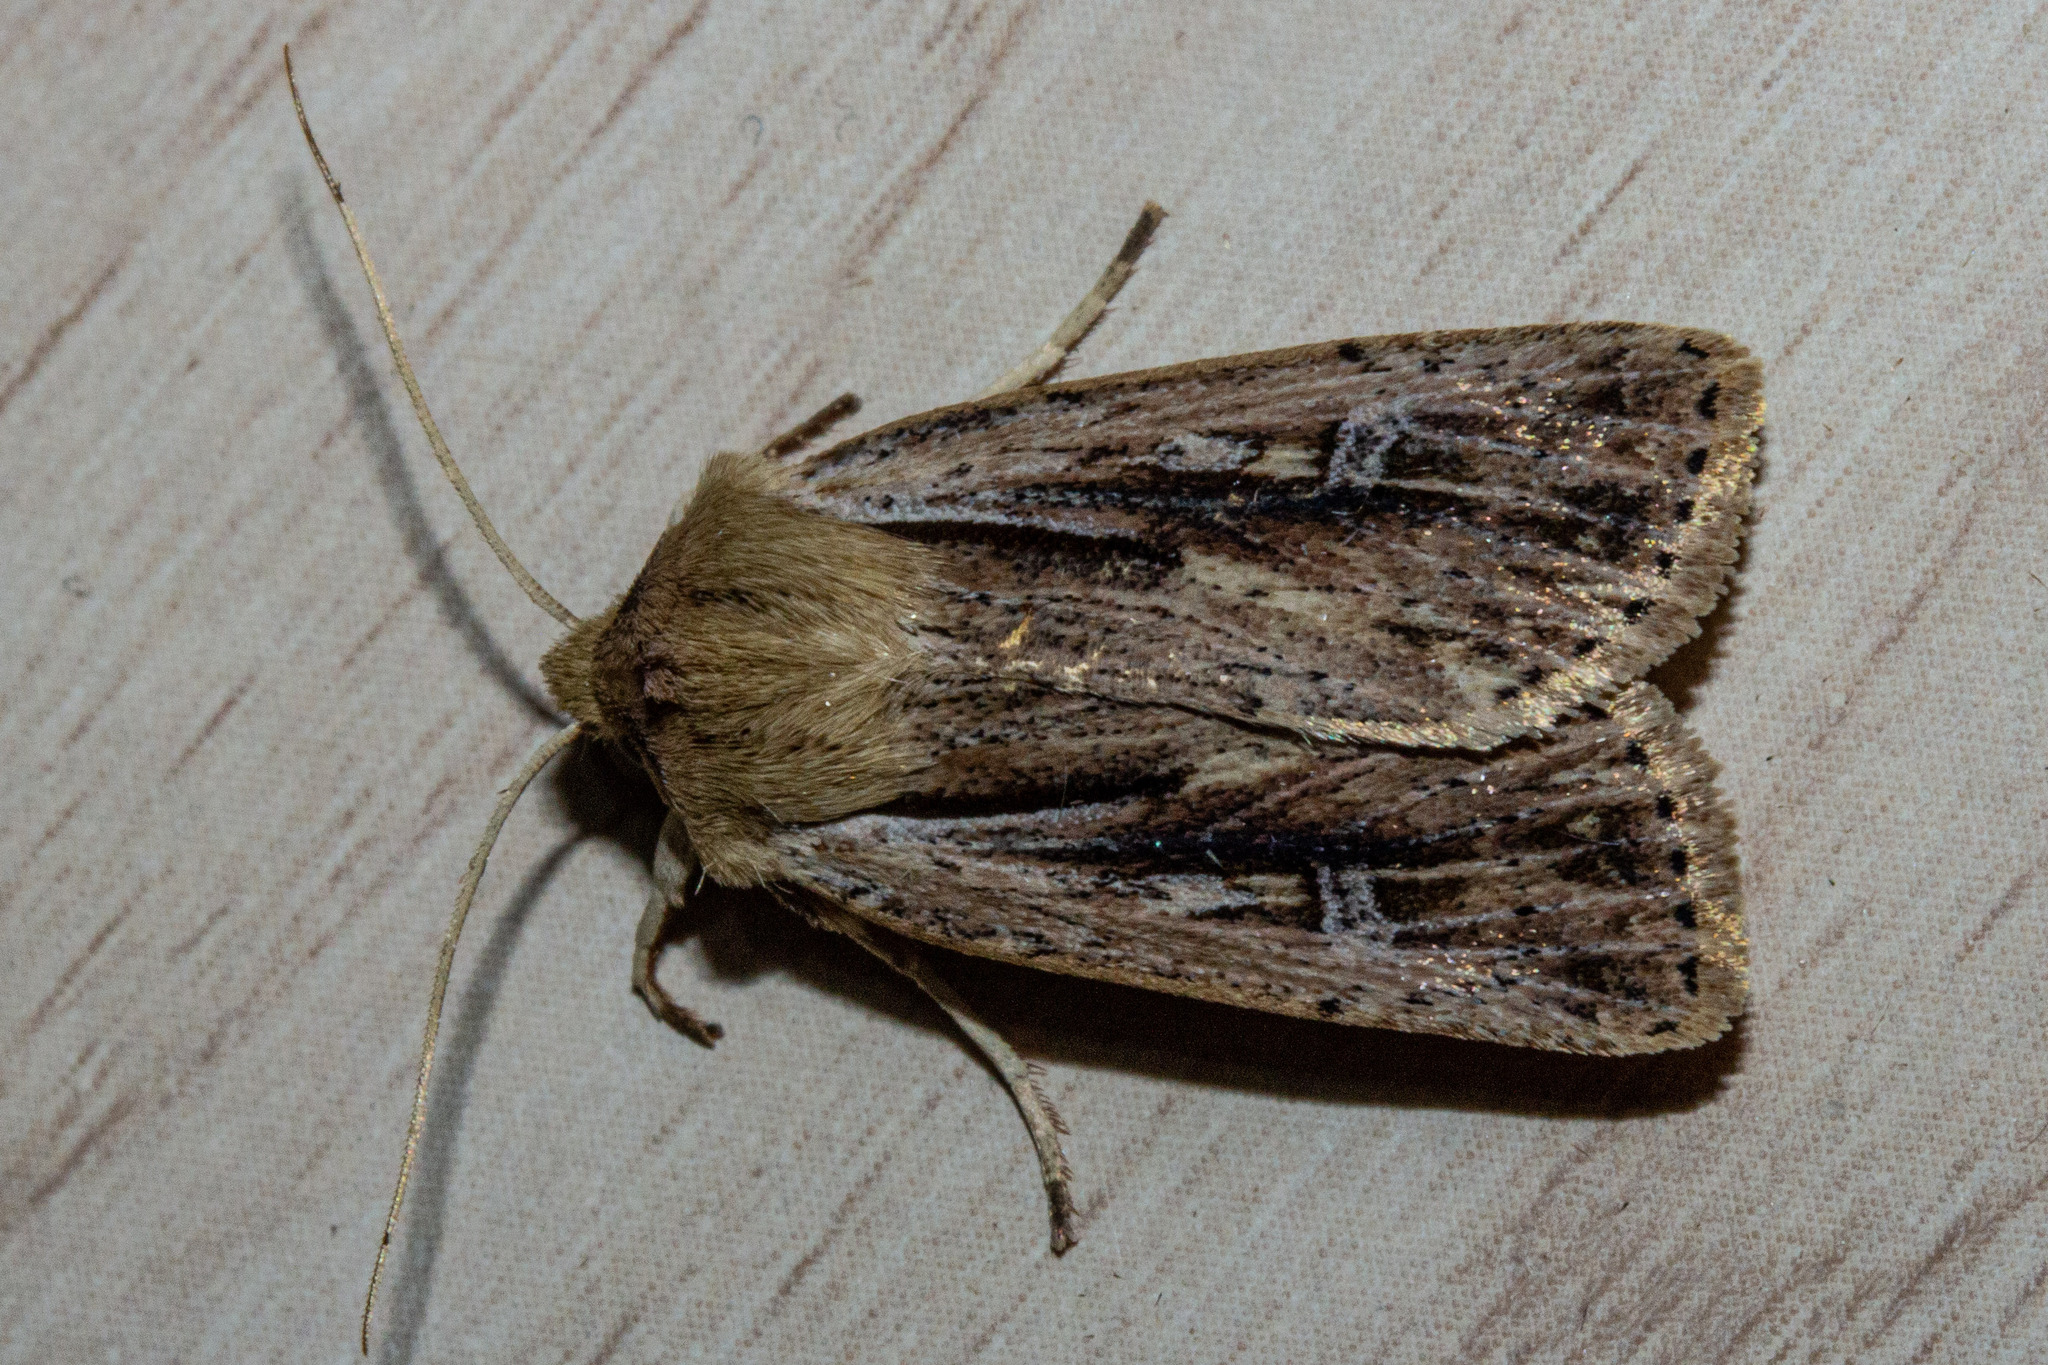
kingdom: Animalia
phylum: Arthropoda
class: Insecta
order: Lepidoptera
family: Noctuidae
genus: Ichneutica
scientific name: Ichneutica propria
